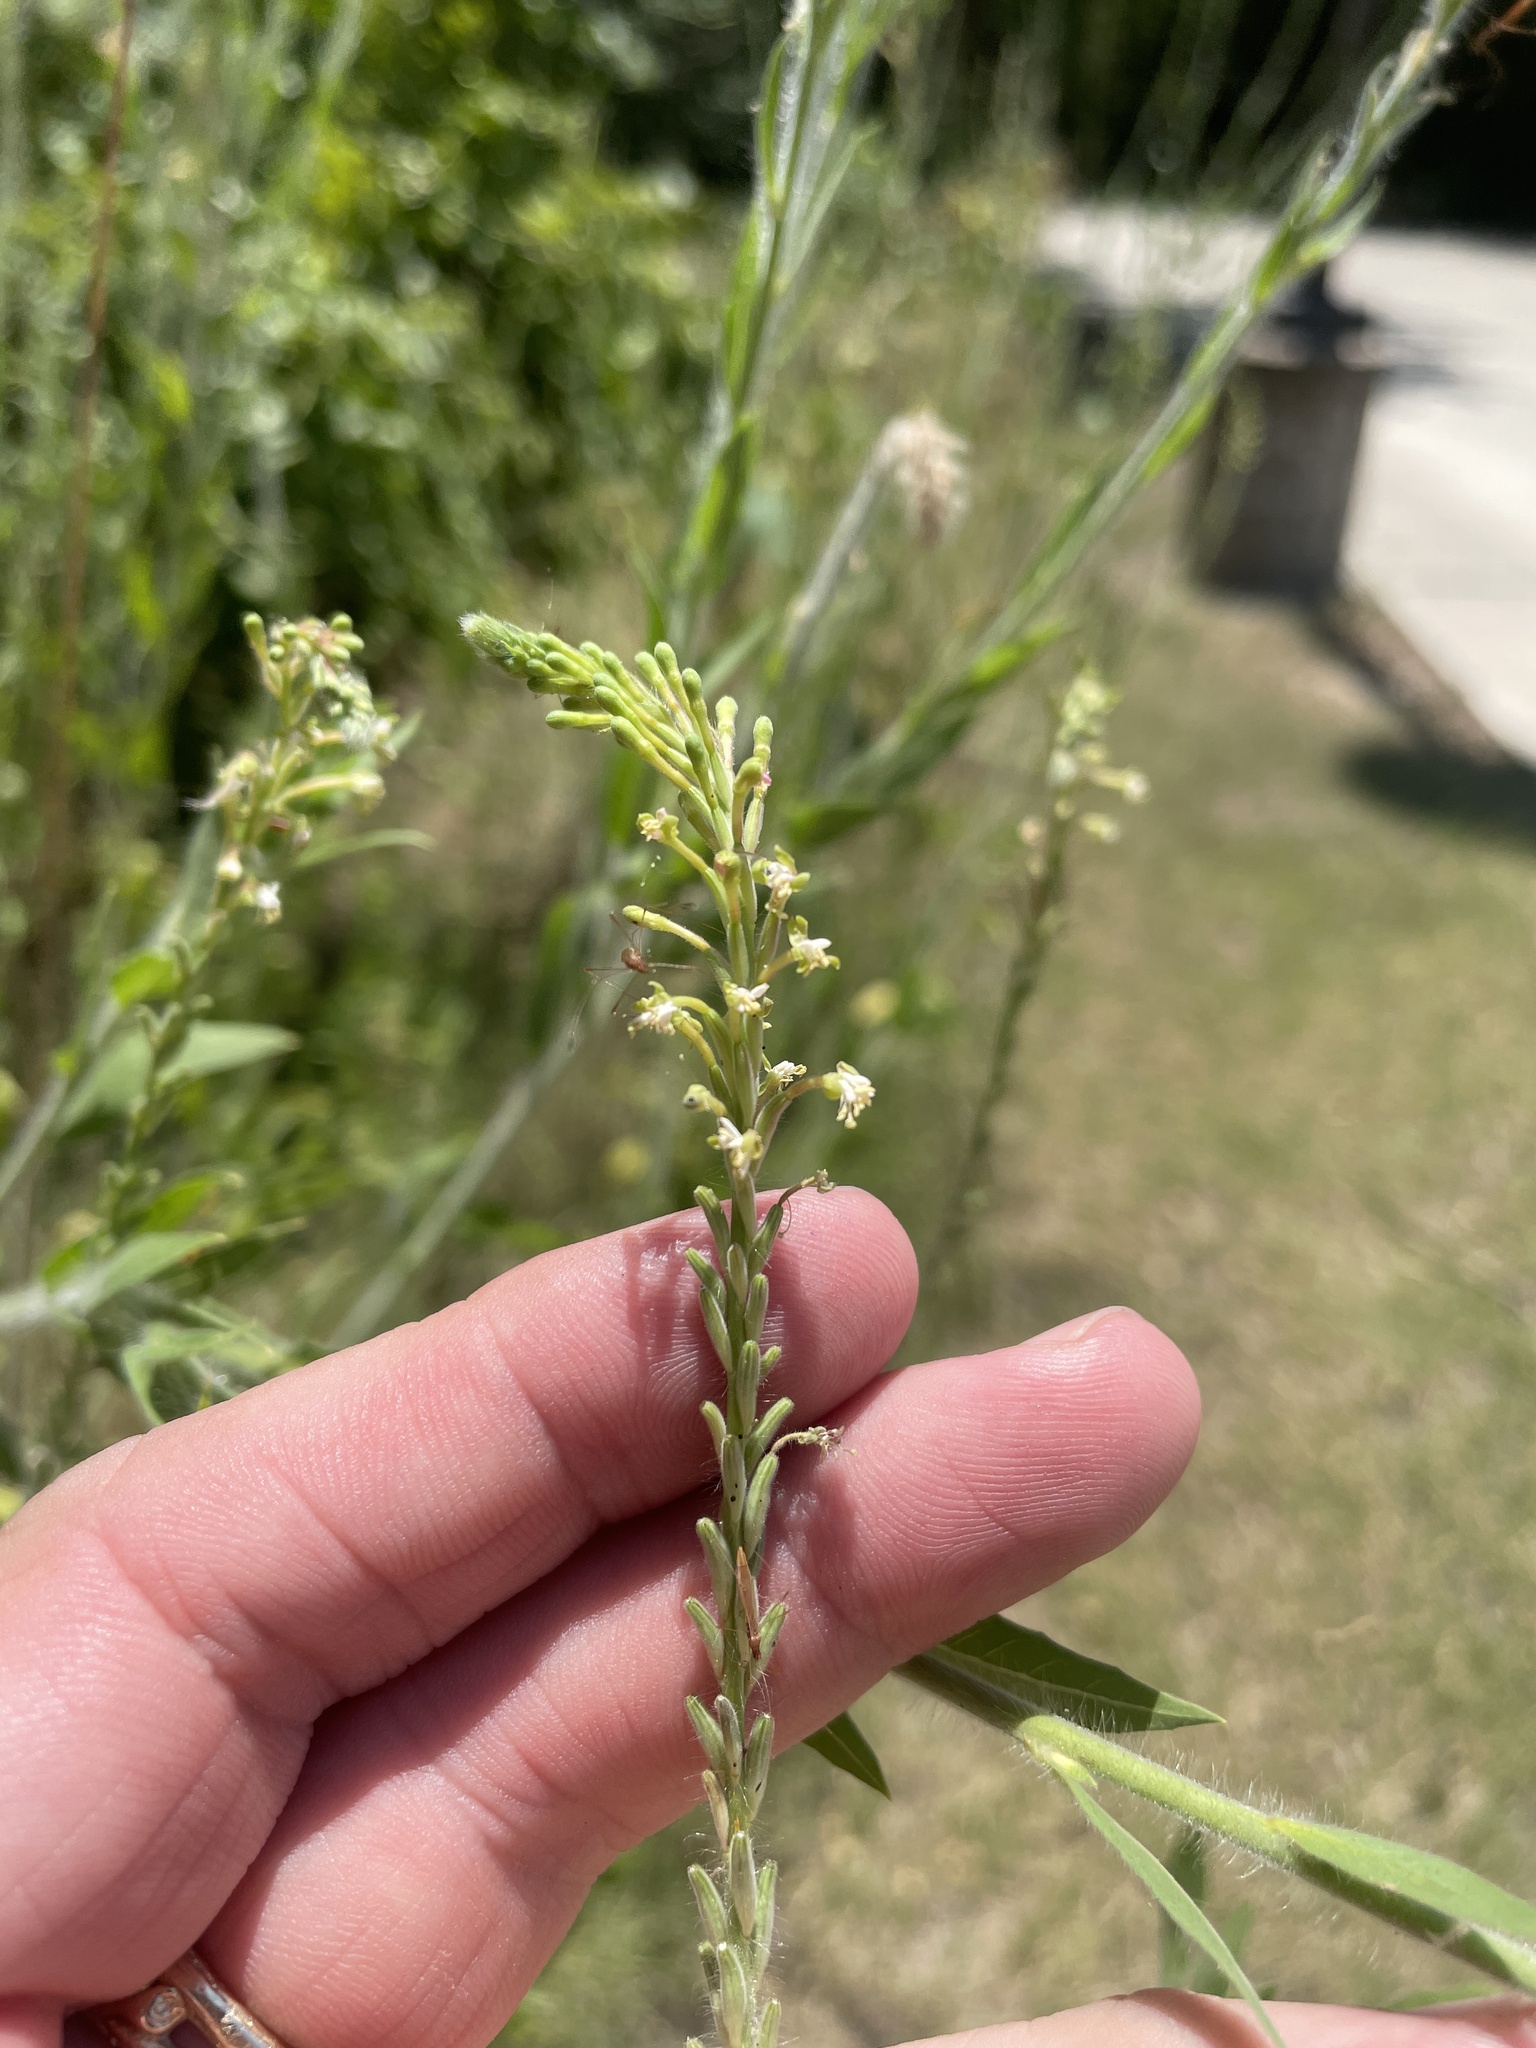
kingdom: Plantae
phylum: Tracheophyta
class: Magnoliopsida
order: Myrtales
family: Onagraceae
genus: Oenothera
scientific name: Oenothera curtiflora
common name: Velvetweed
